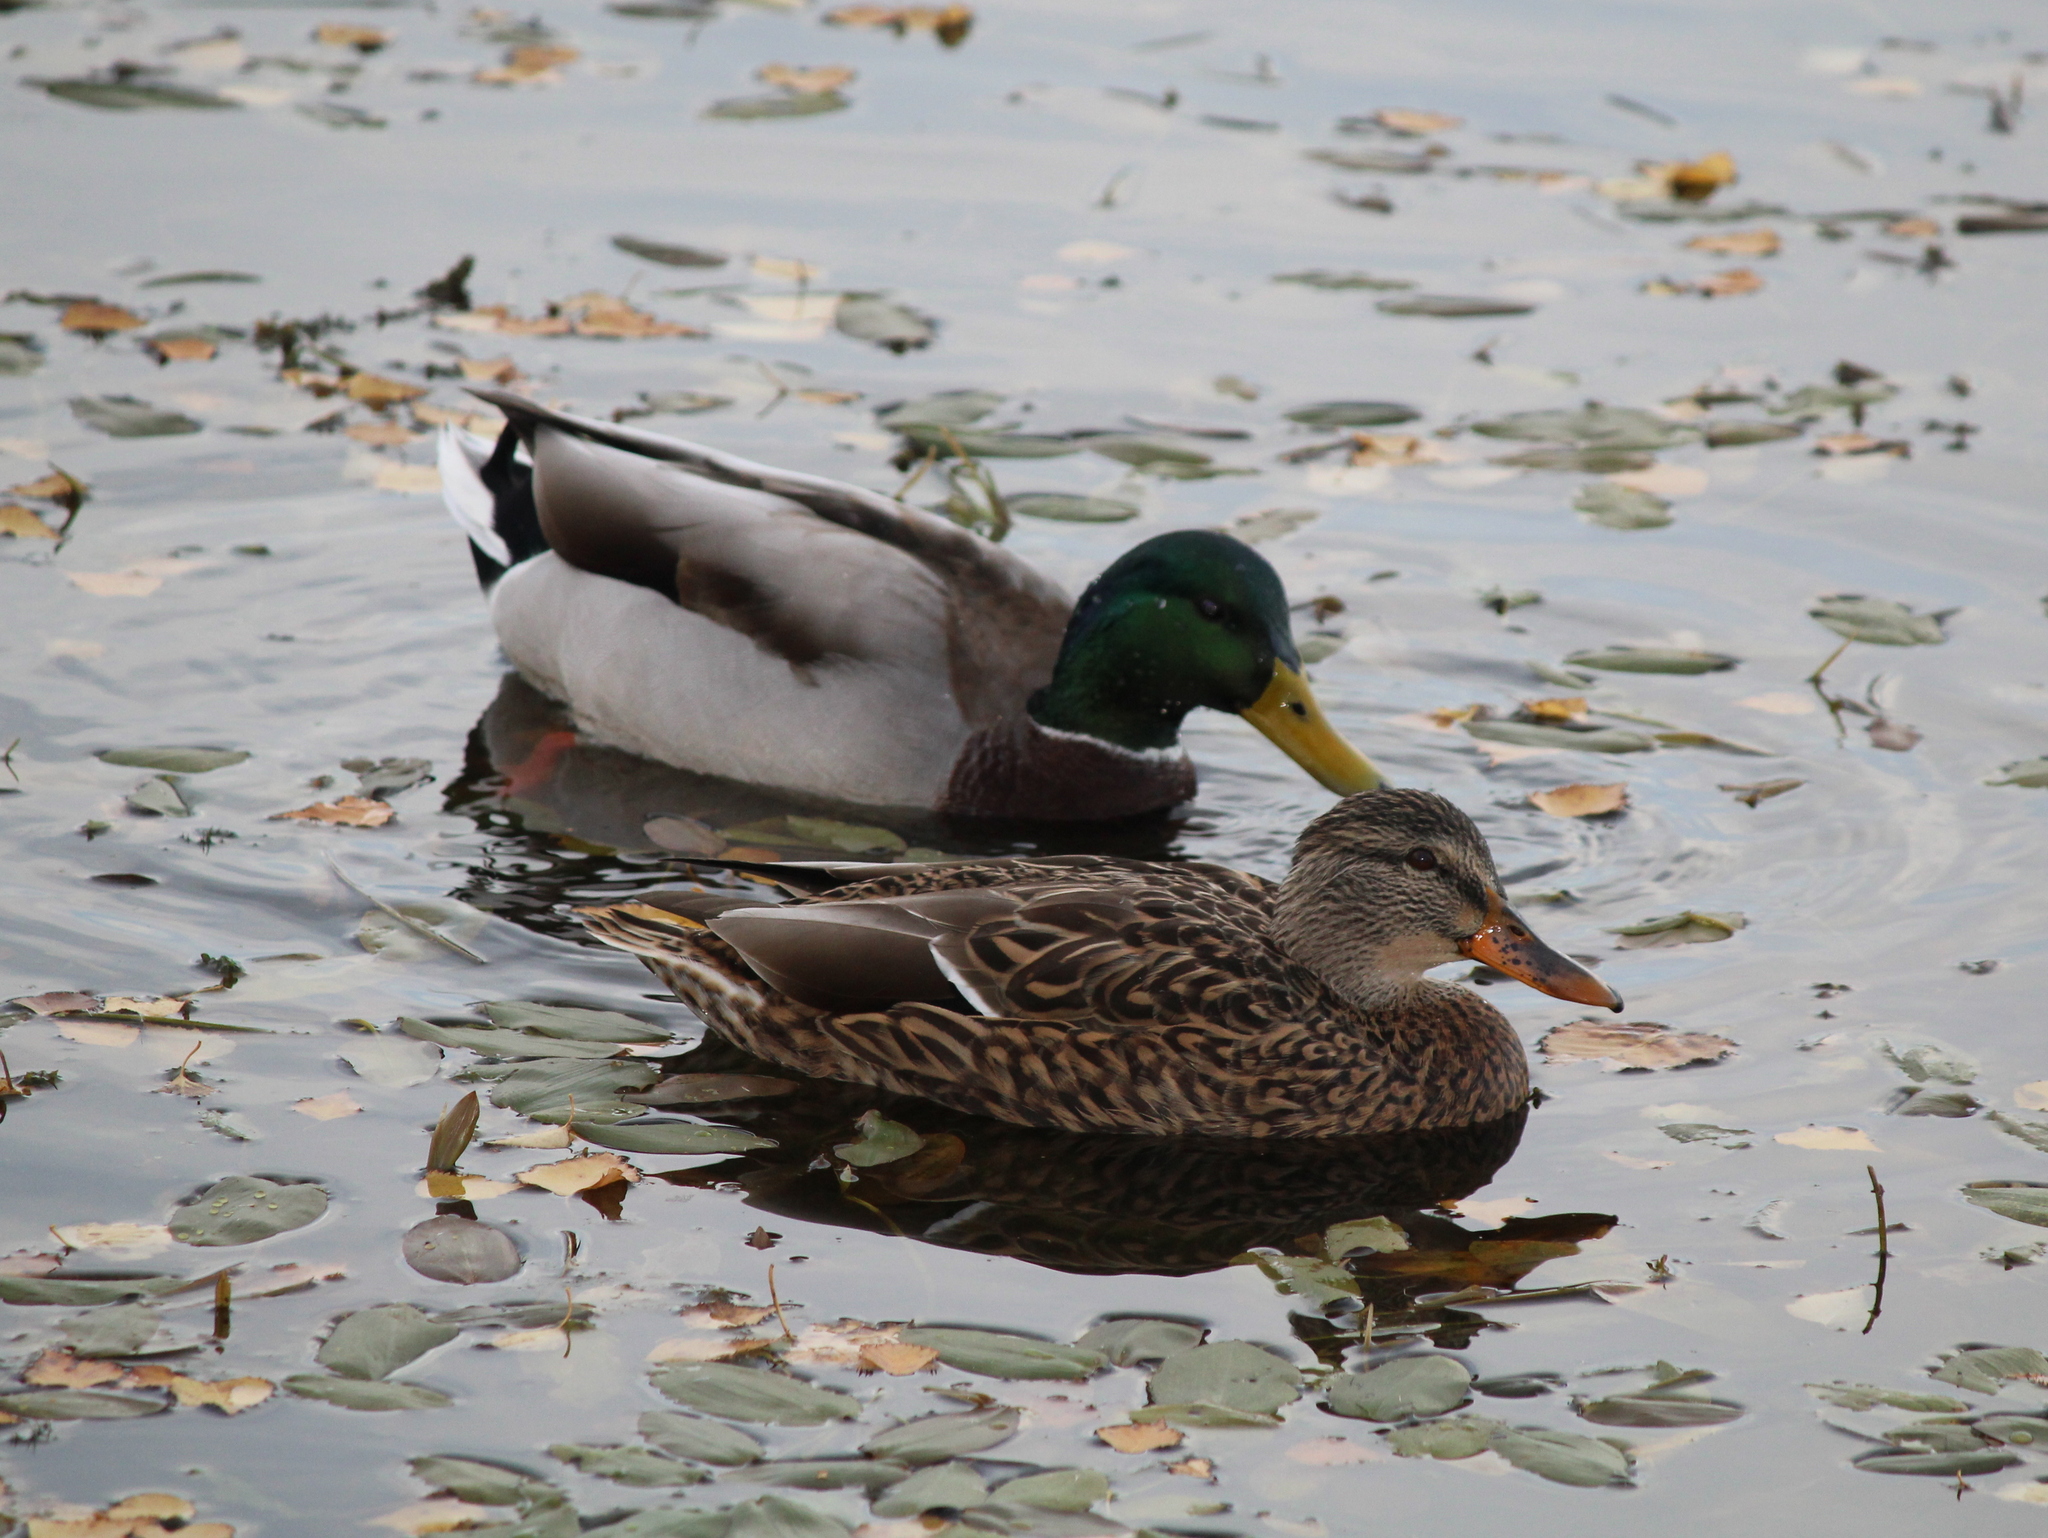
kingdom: Animalia
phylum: Chordata
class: Aves
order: Anseriformes
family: Anatidae
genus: Anas
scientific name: Anas platyrhynchos
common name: Mallard
